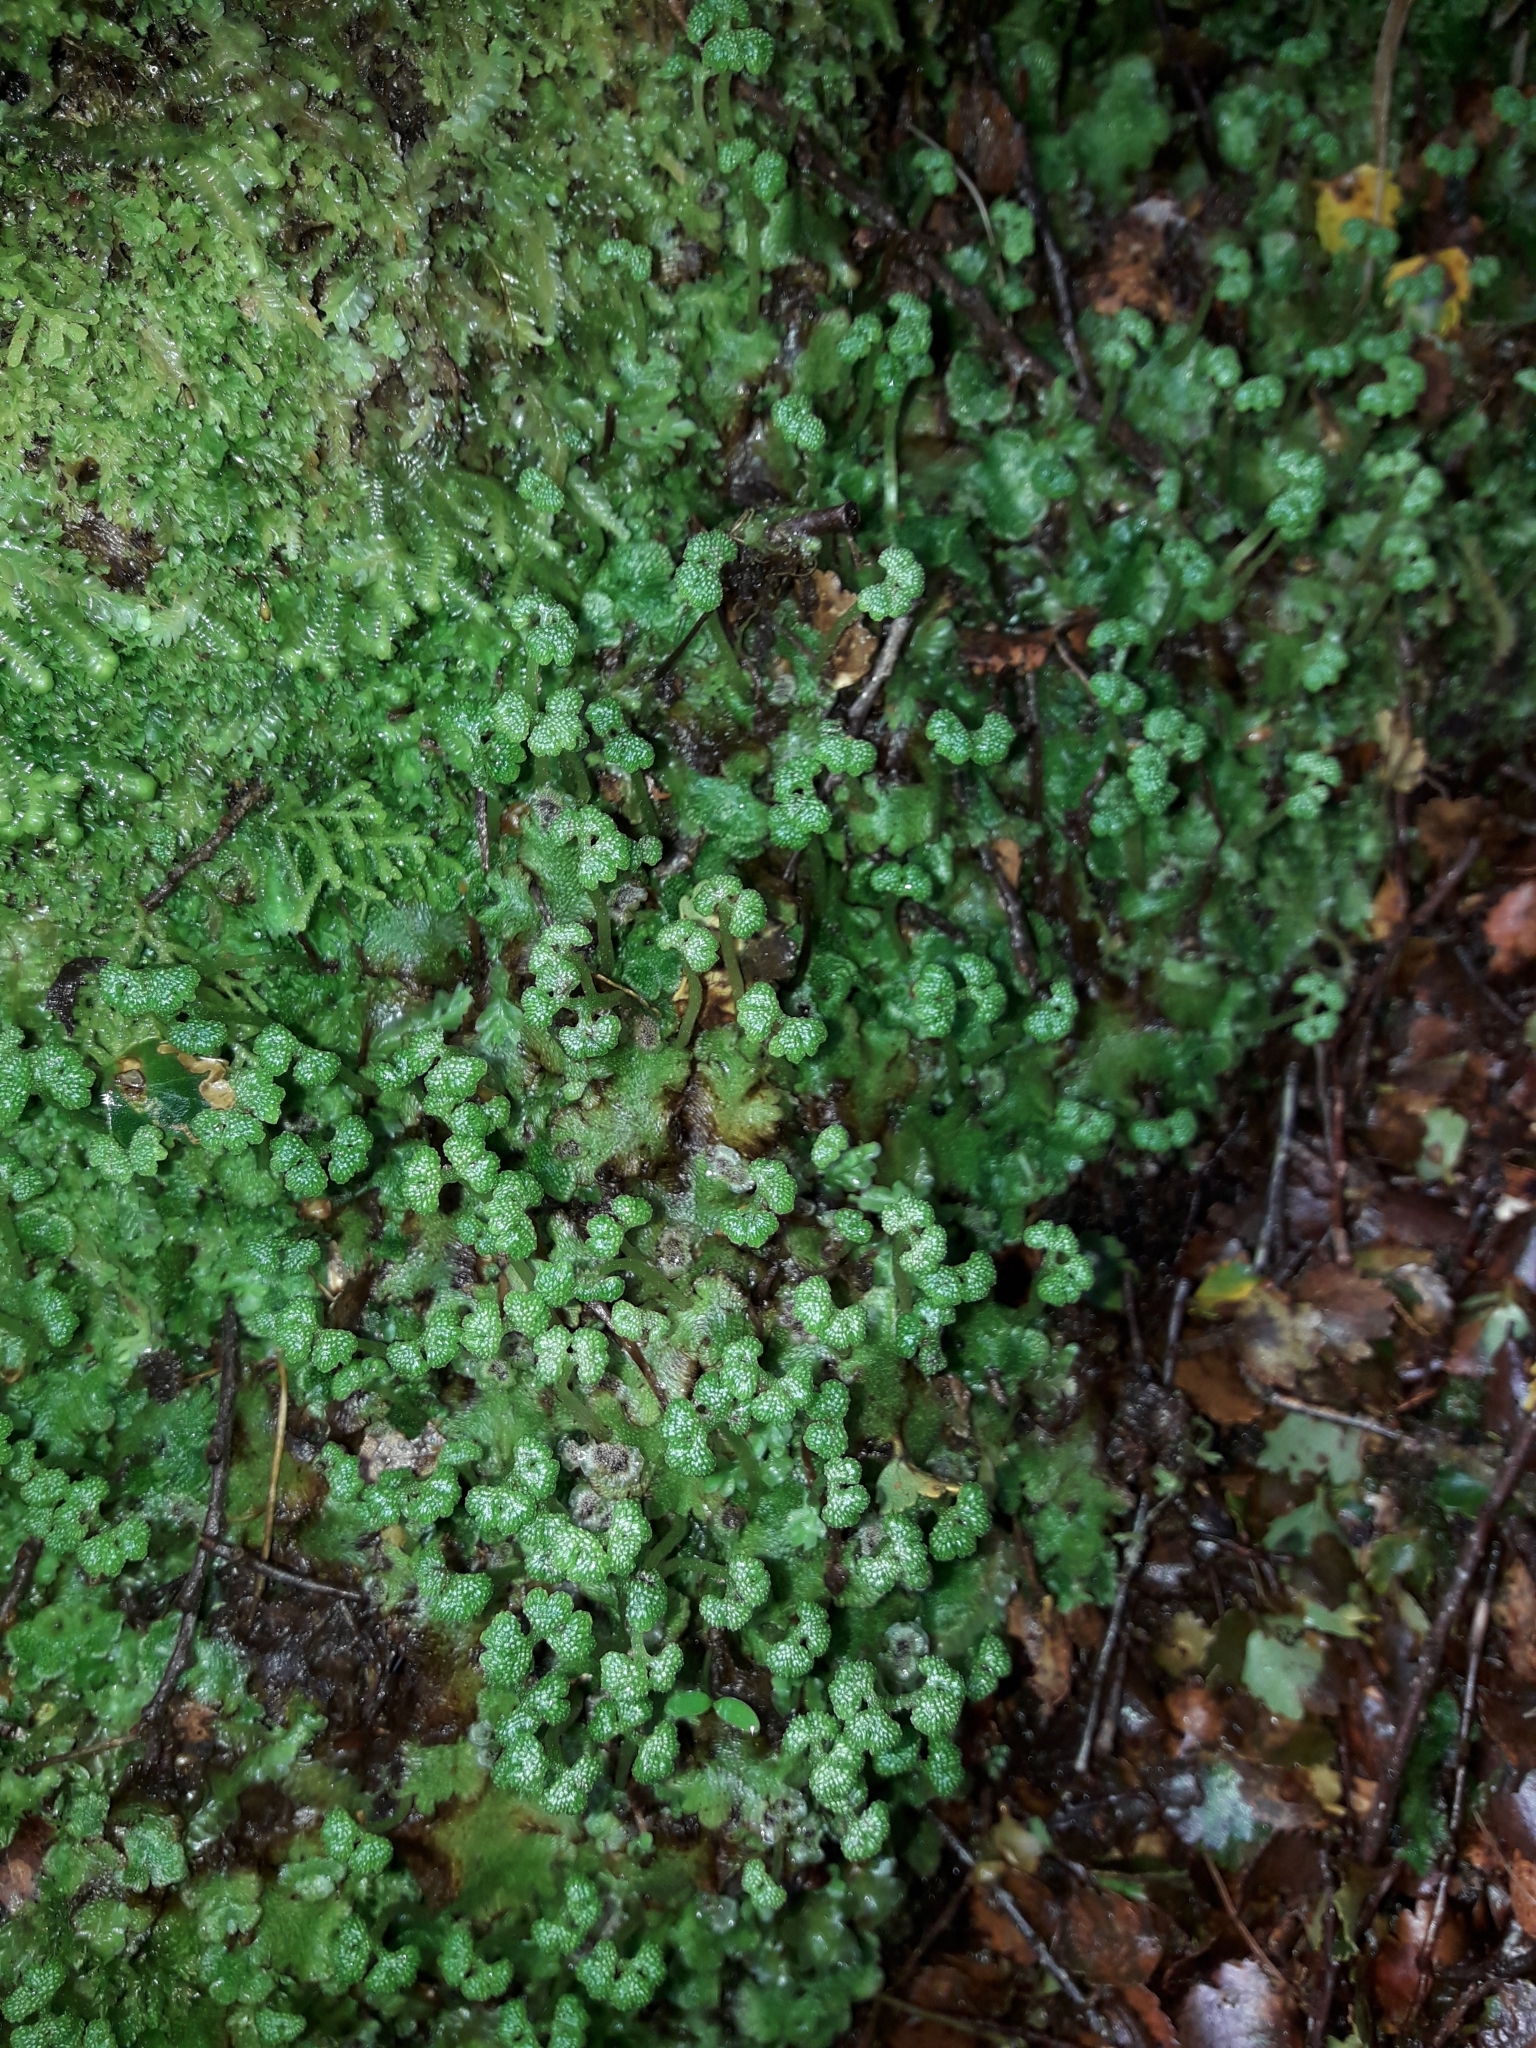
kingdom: Plantae
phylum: Marchantiophyta
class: Marchantiopsida
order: Neohodgsoniales
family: Neohodgsoniaceae
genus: Neohodgsonia
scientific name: Neohodgsonia mirabilis
